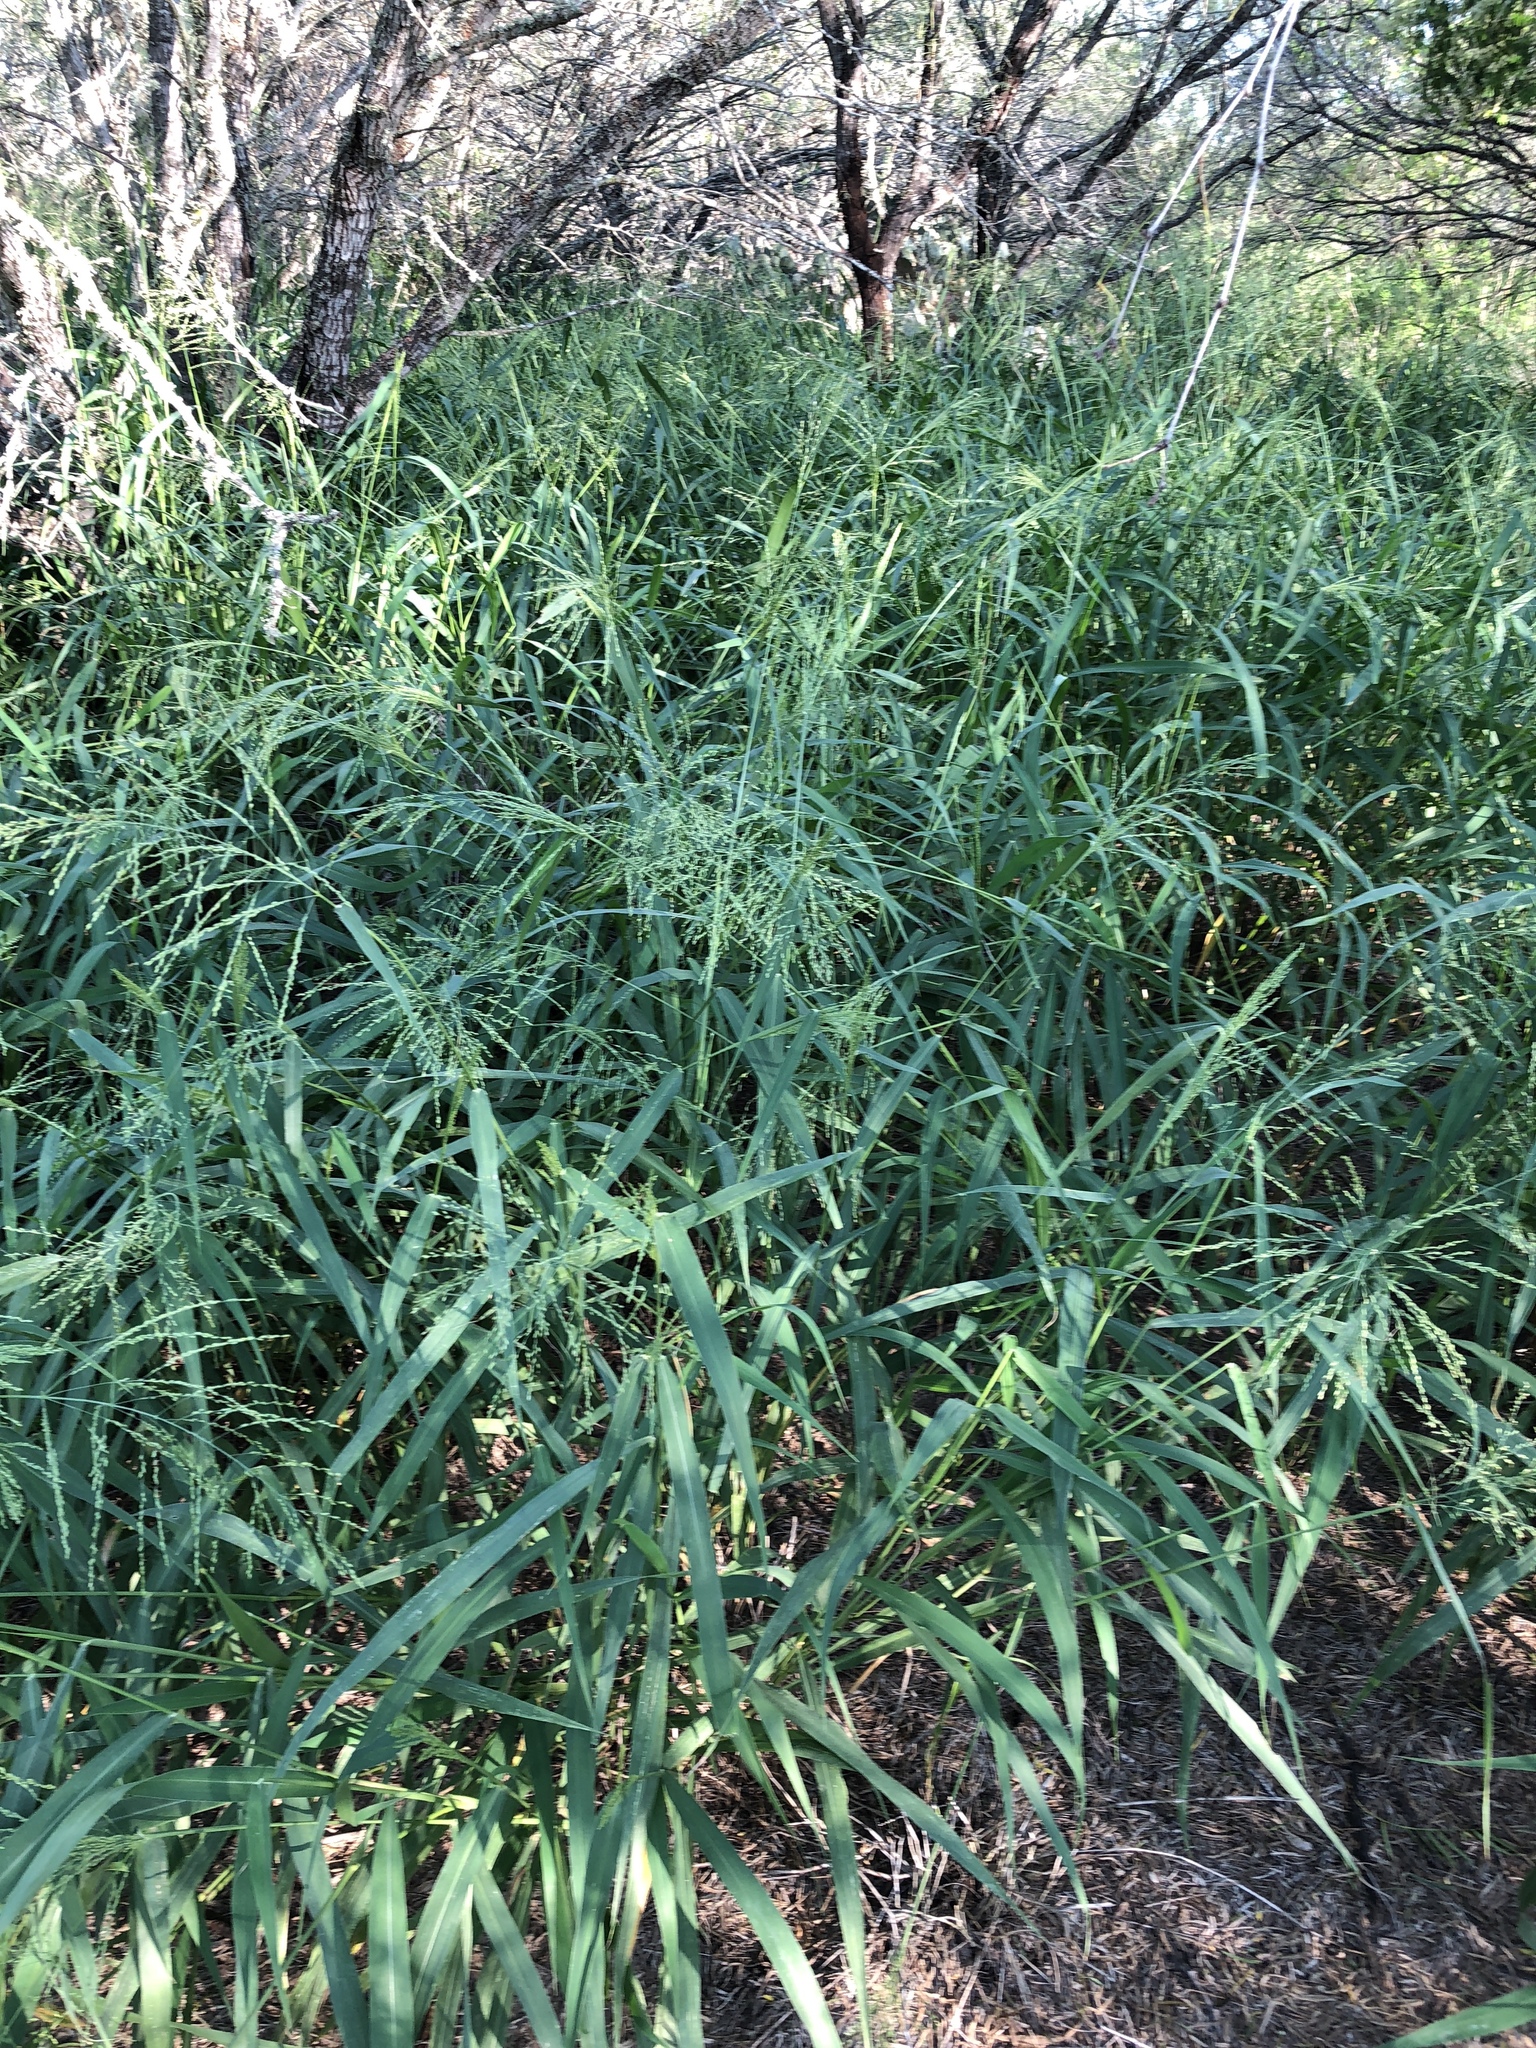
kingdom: Plantae
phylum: Tracheophyta
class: Liliopsida
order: Poales
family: Poaceae
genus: Megathyrsus
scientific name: Megathyrsus maximus
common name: Guineagrass
